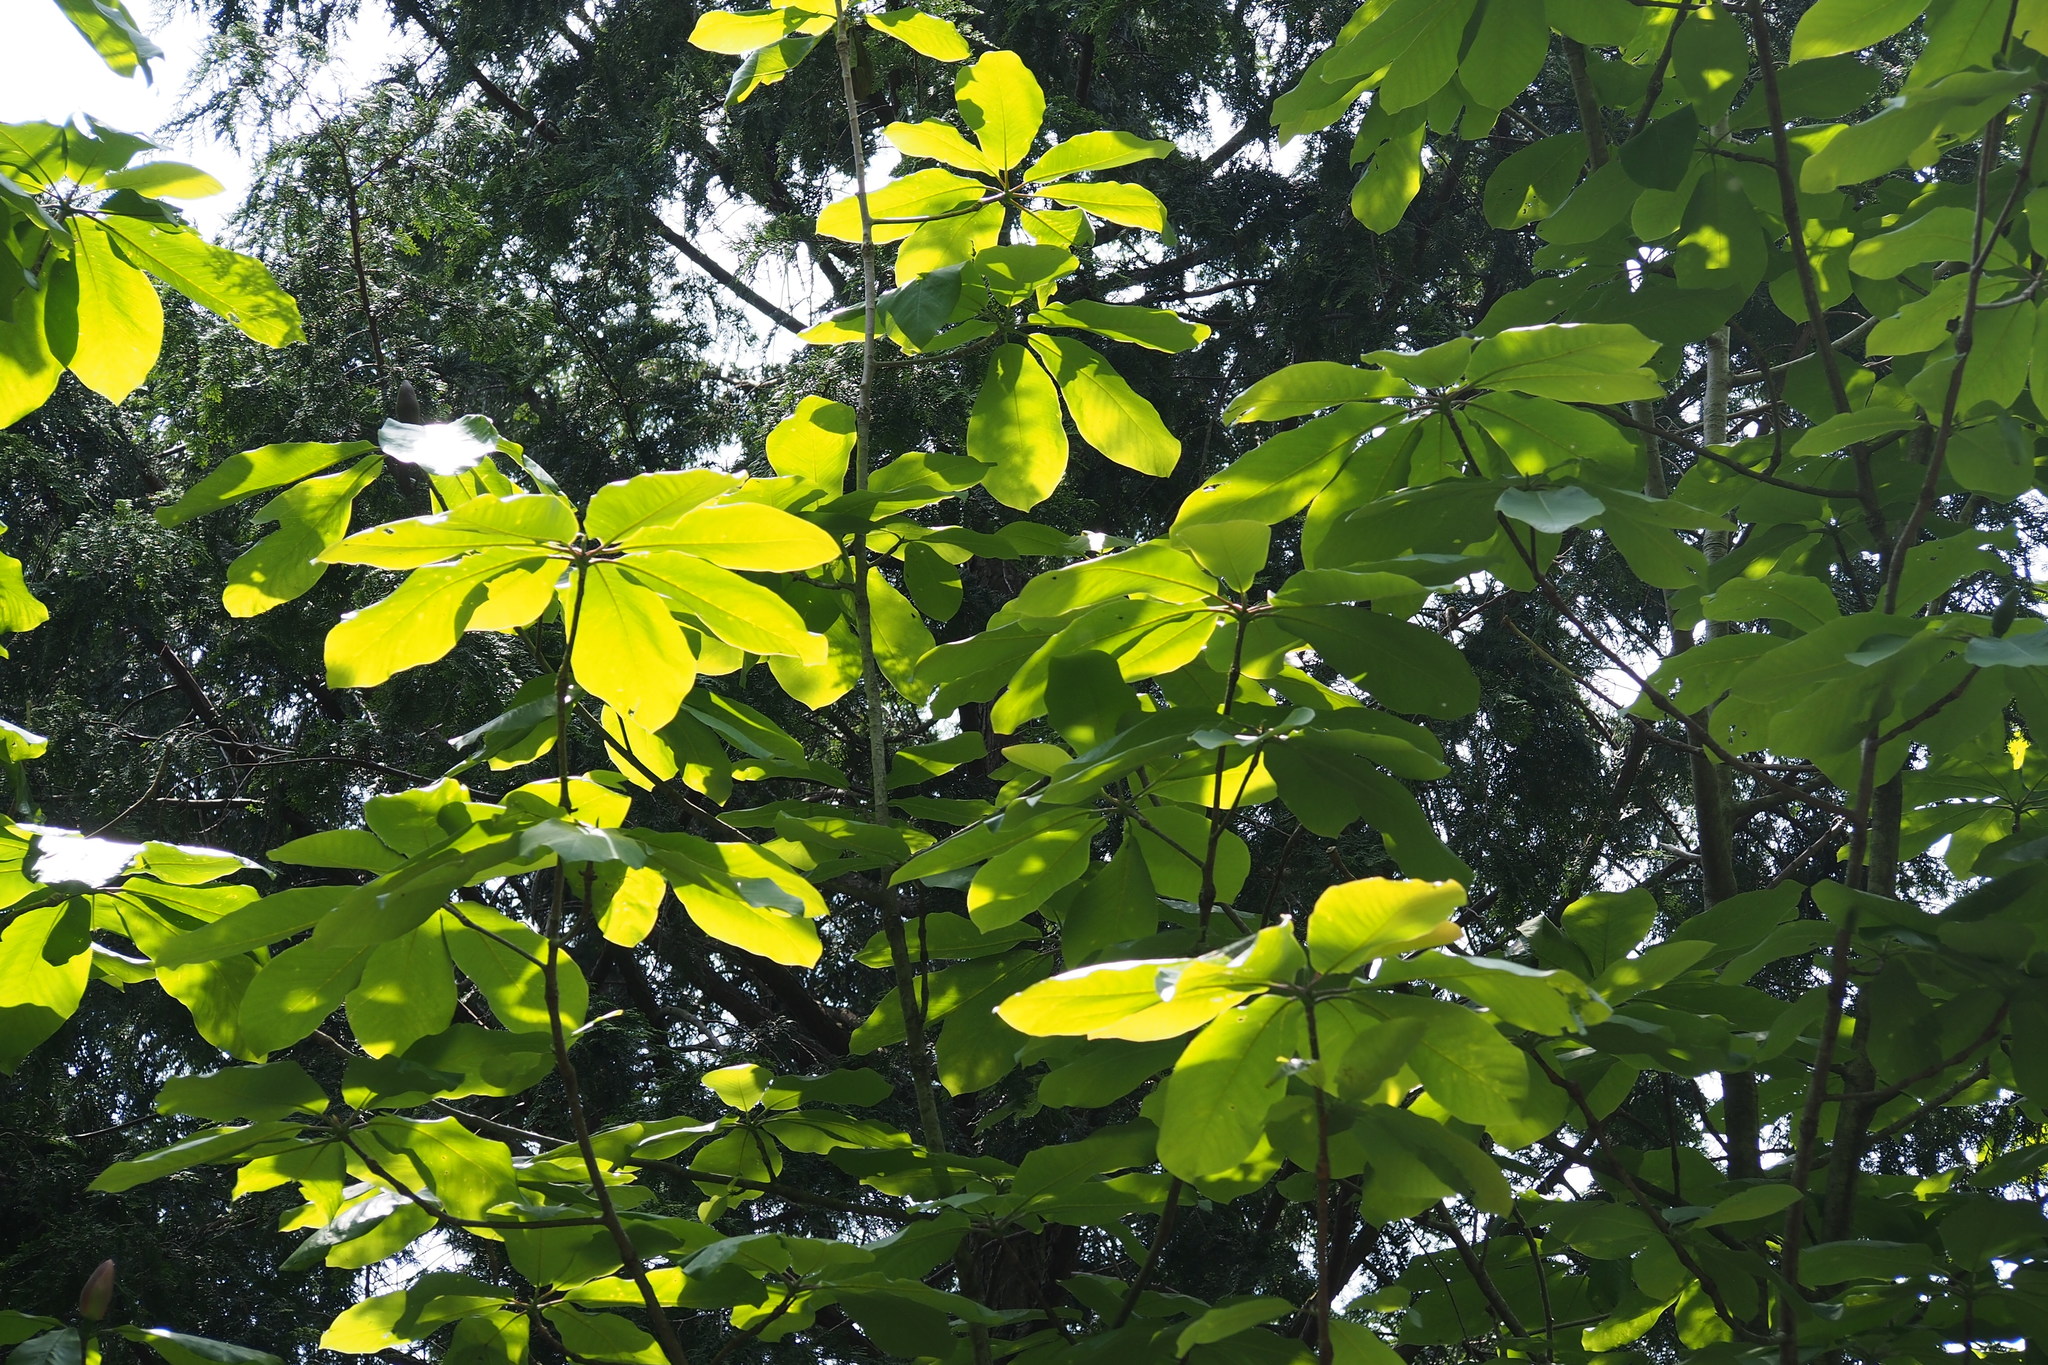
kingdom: Plantae
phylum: Tracheophyta
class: Magnoliopsida
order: Magnoliales
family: Magnoliaceae
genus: Magnolia
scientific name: Magnolia obovata
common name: Japanese whitebark magnolia
